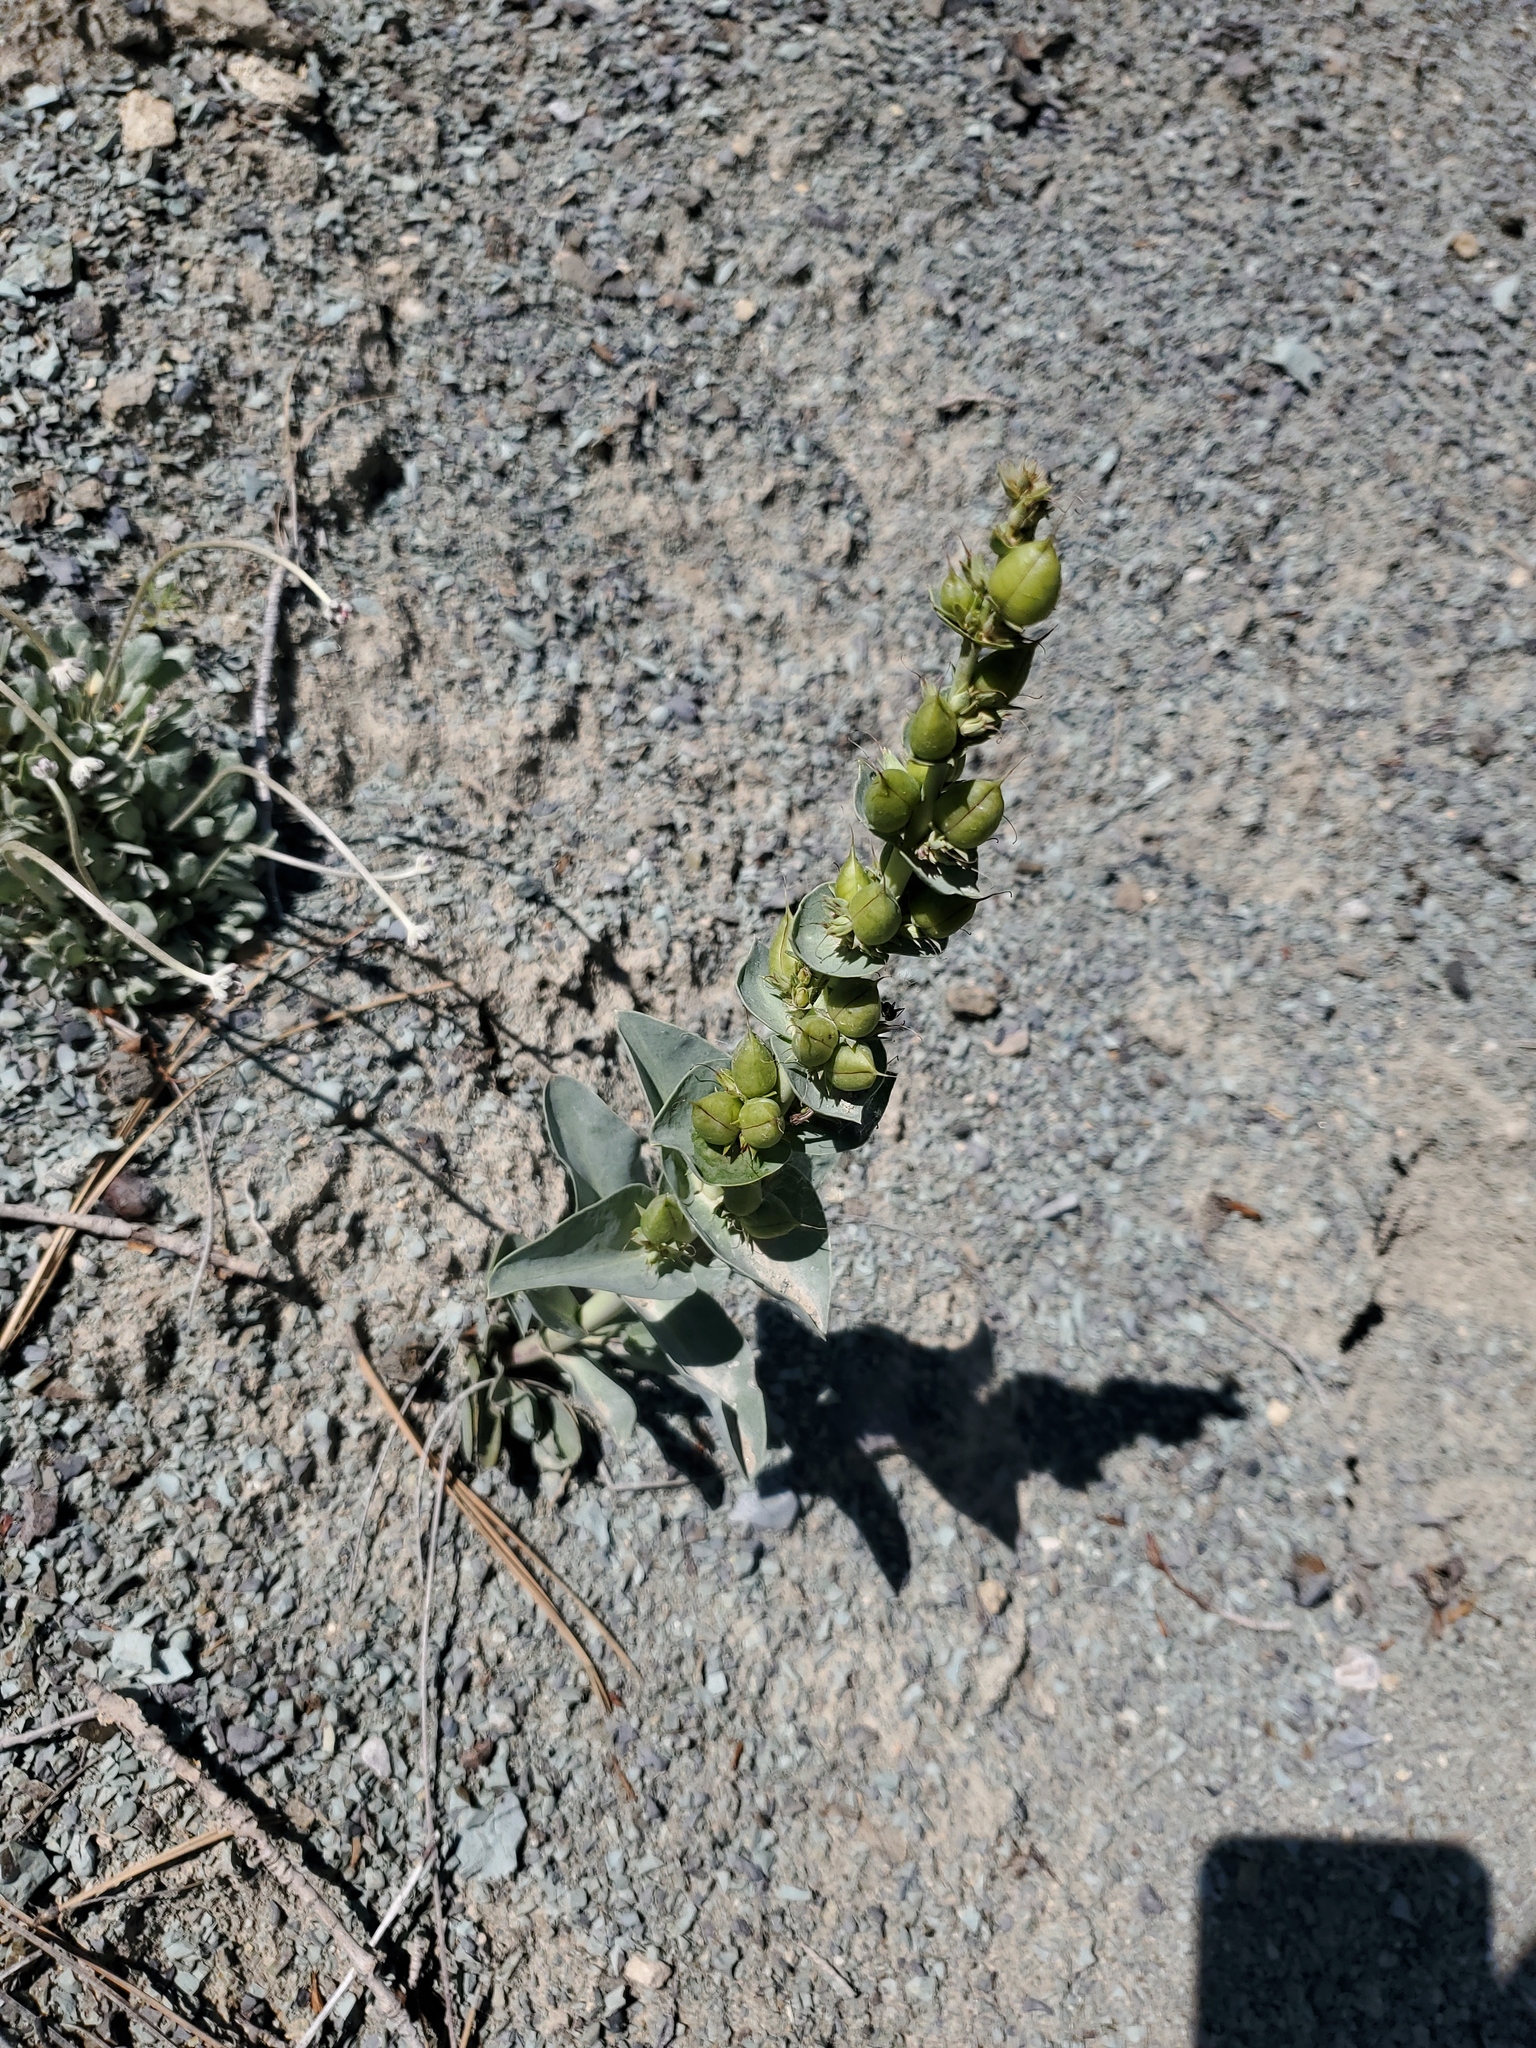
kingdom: Plantae
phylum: Tracheophyta
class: Magnoliopsida
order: Lamiales
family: Plantaginaceae
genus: Penstemon
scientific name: Penstemon nitidus
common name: Shining penstemon
